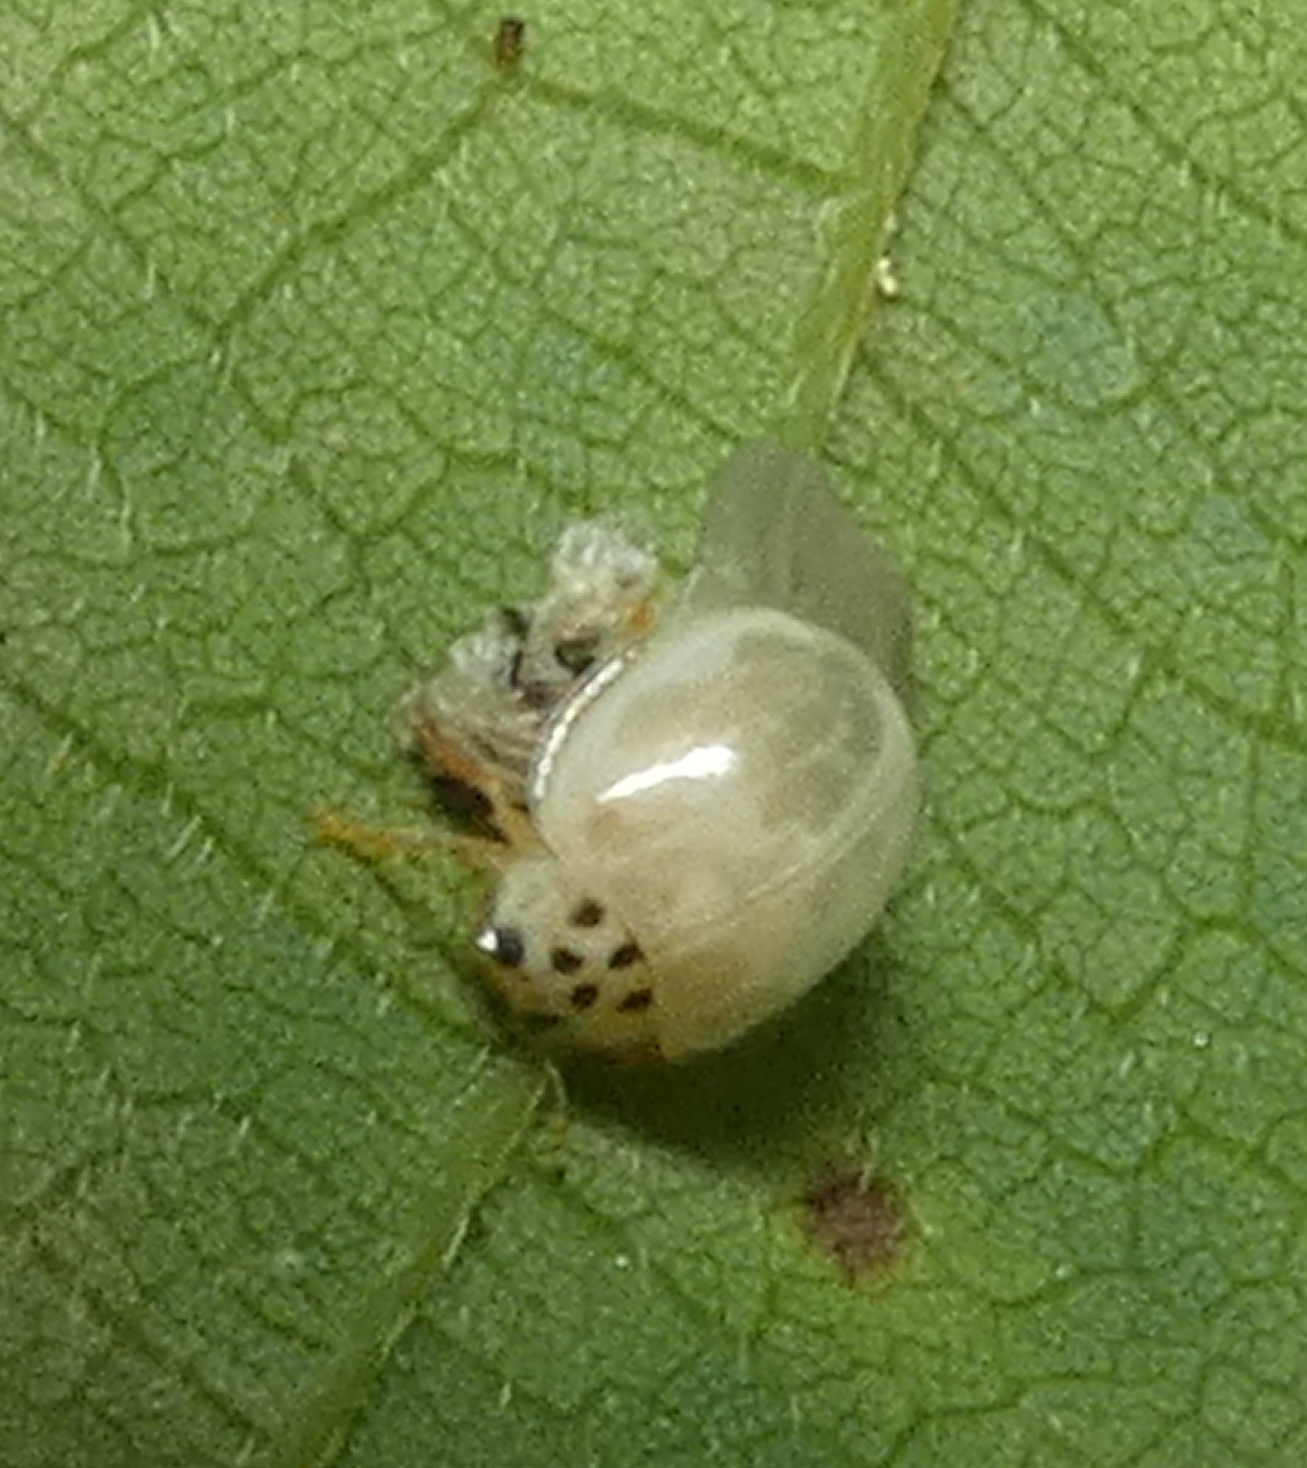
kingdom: Animalia
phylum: Arthropoda
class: Insecta
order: Coleoptera
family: Coccinellidae
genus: Psyllobora
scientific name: Psyllobora confluens
